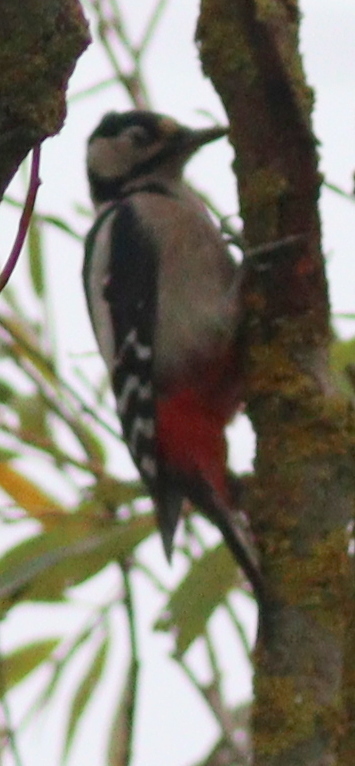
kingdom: Animalia
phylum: Chordata
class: Aves
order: Piciformes
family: Picidae
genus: Dendrocopos
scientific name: Dendrocopos major
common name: Great spotted woodpecker
